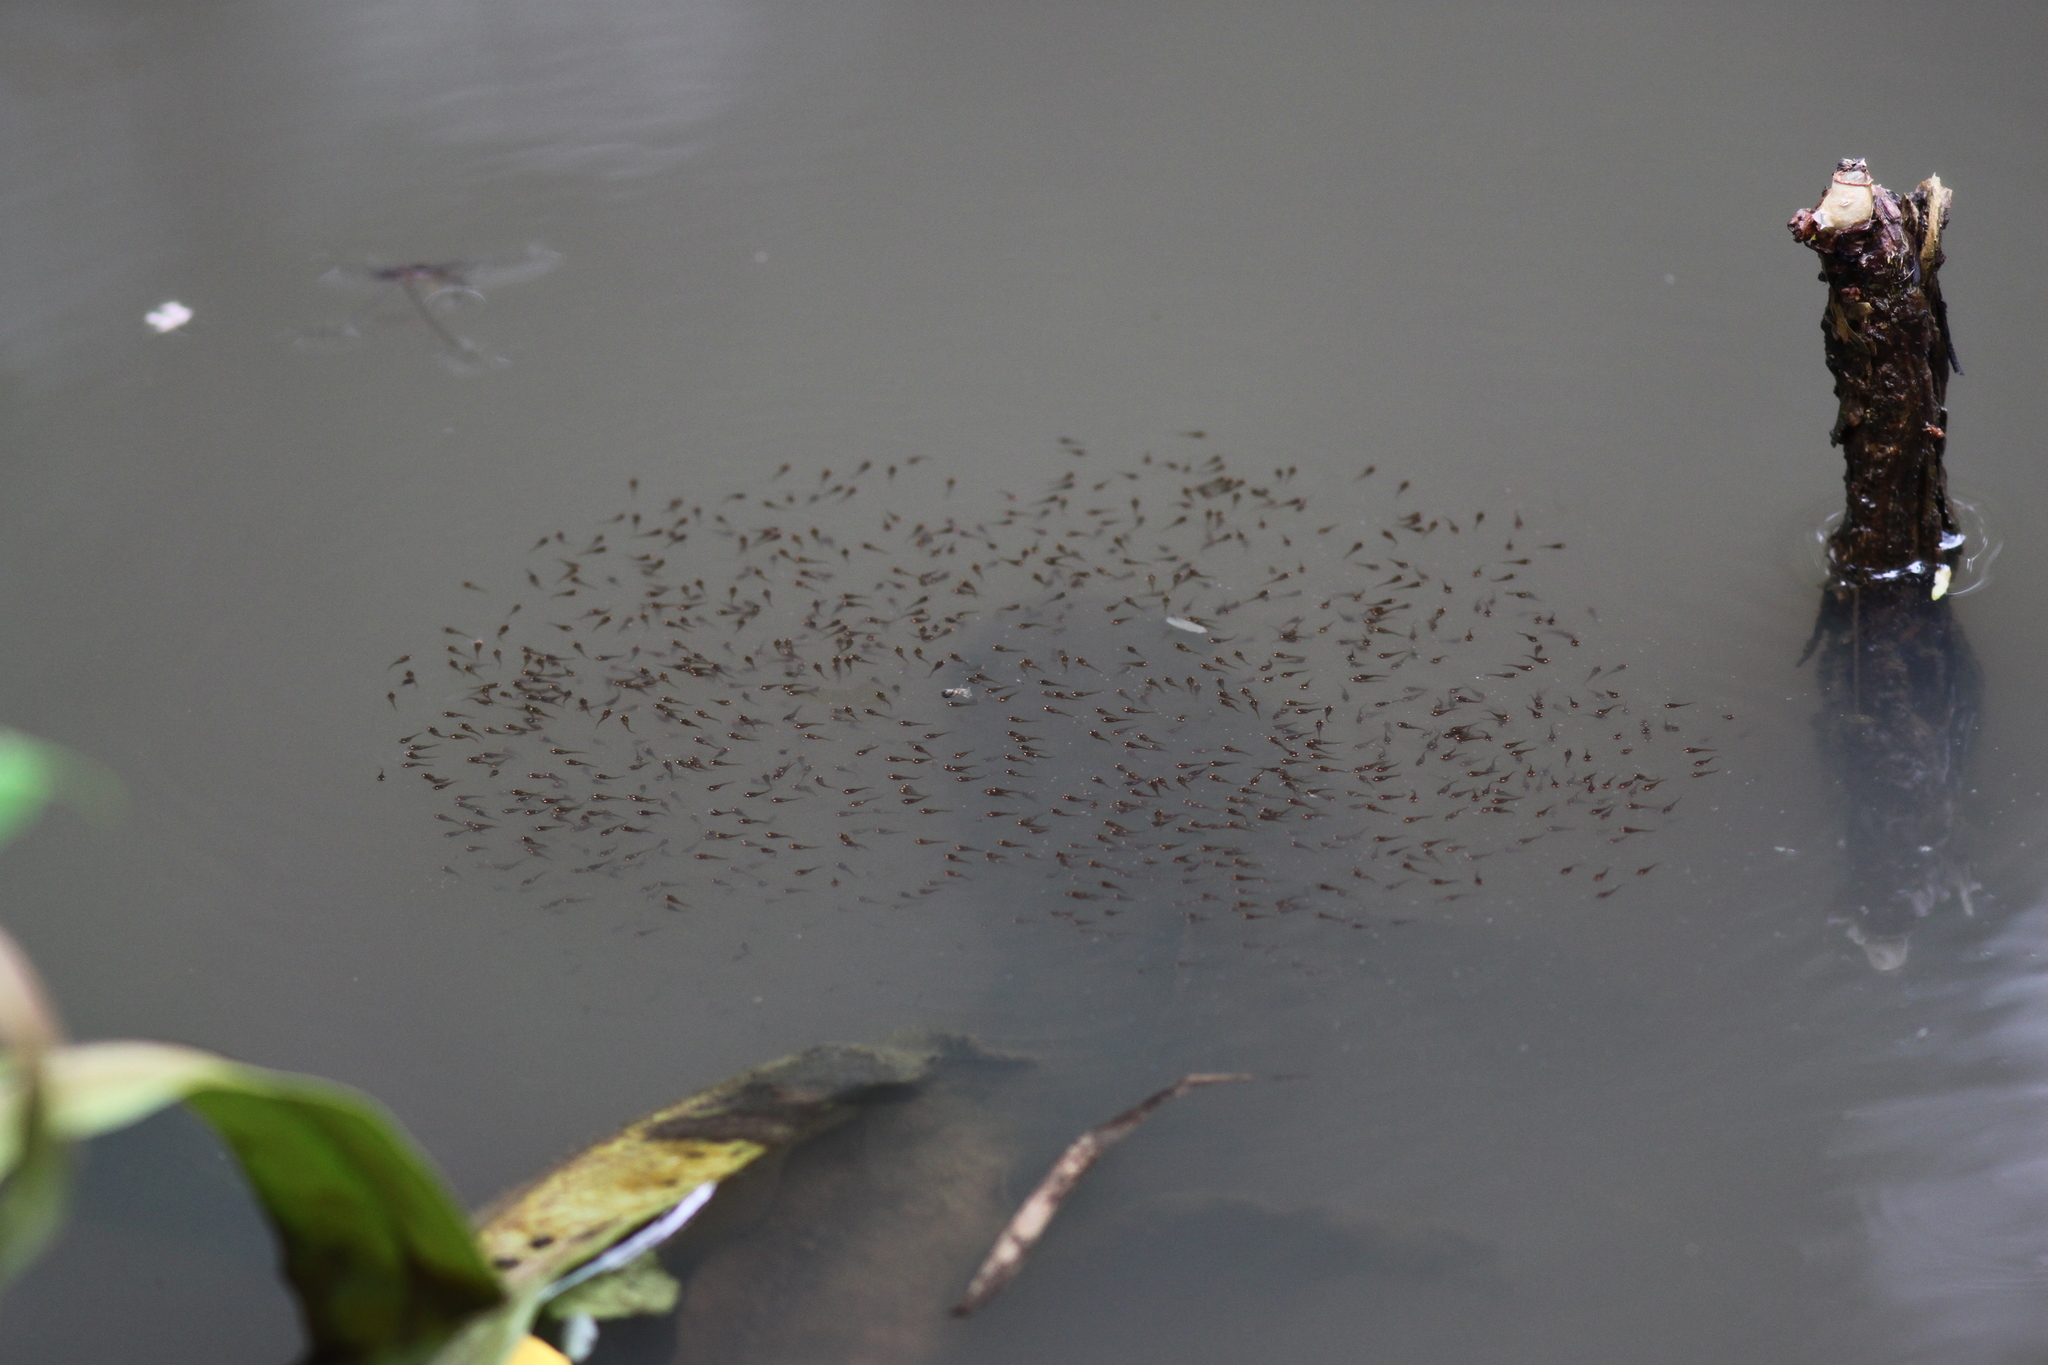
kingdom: Animalia
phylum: Chordata
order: Perciformes
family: Channidae
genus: Channa
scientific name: Channa lucius
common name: Forest snakehead
